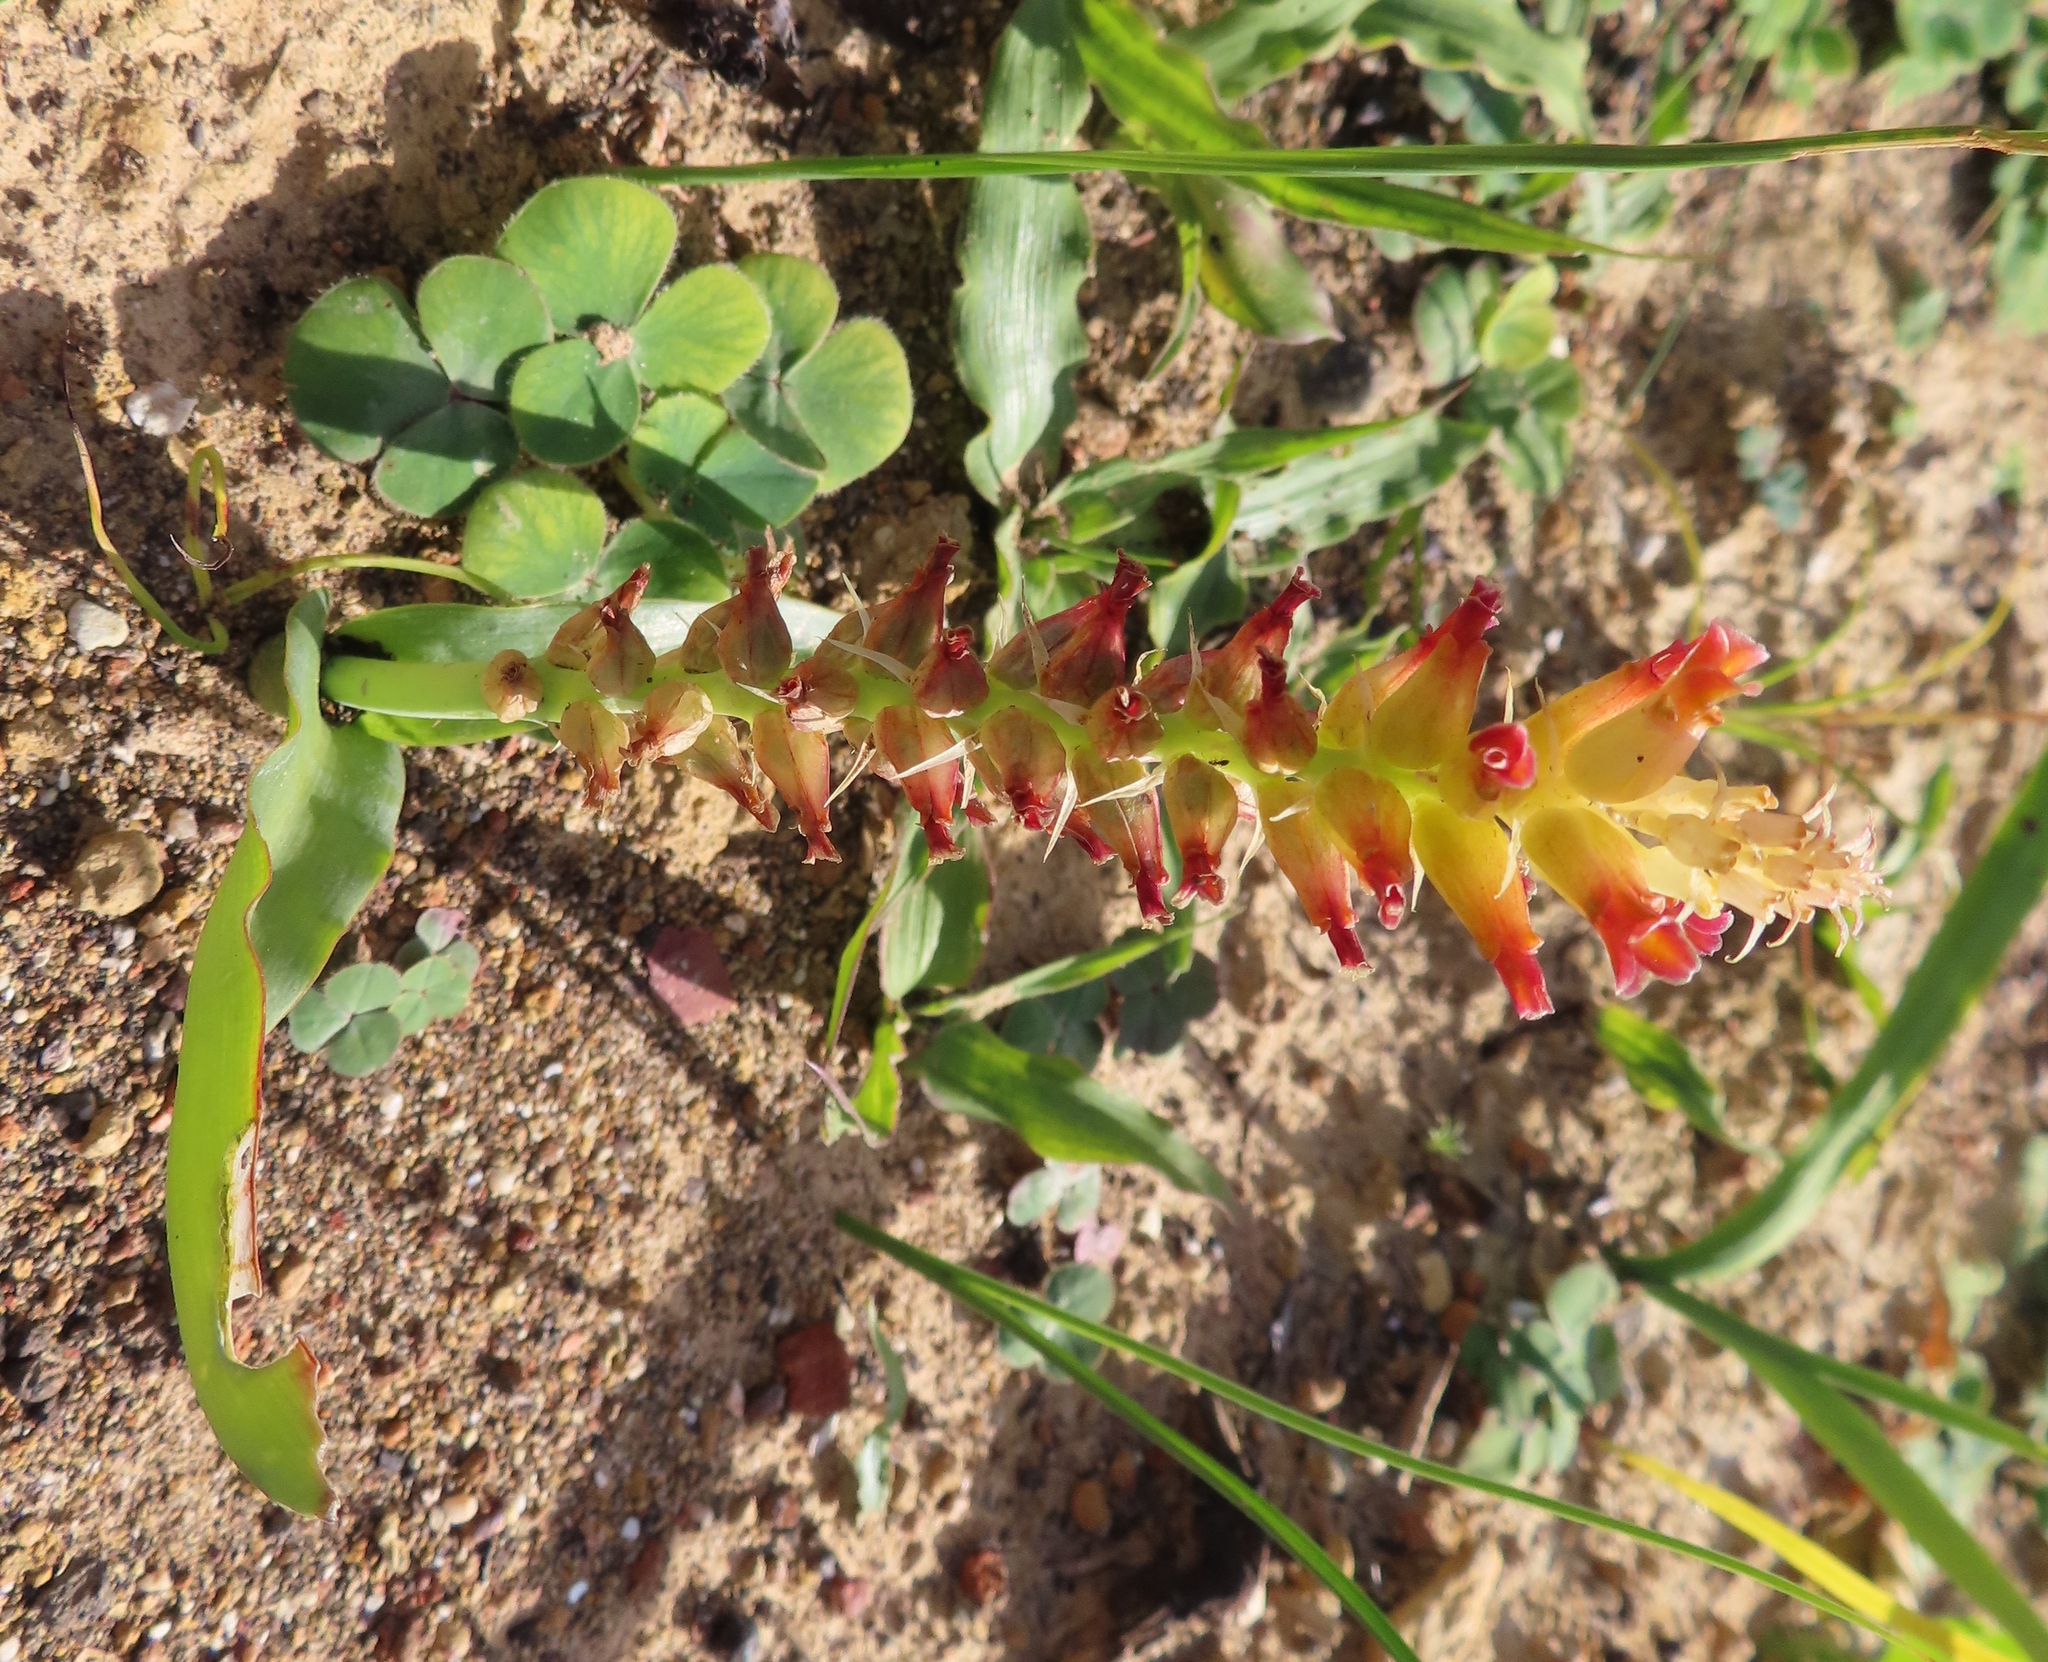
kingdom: Plantae
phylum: Tracheophyta
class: Liliopsida
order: Asparagales
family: Asparagaceae
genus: Lachenalia
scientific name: Lachenalia lutea
